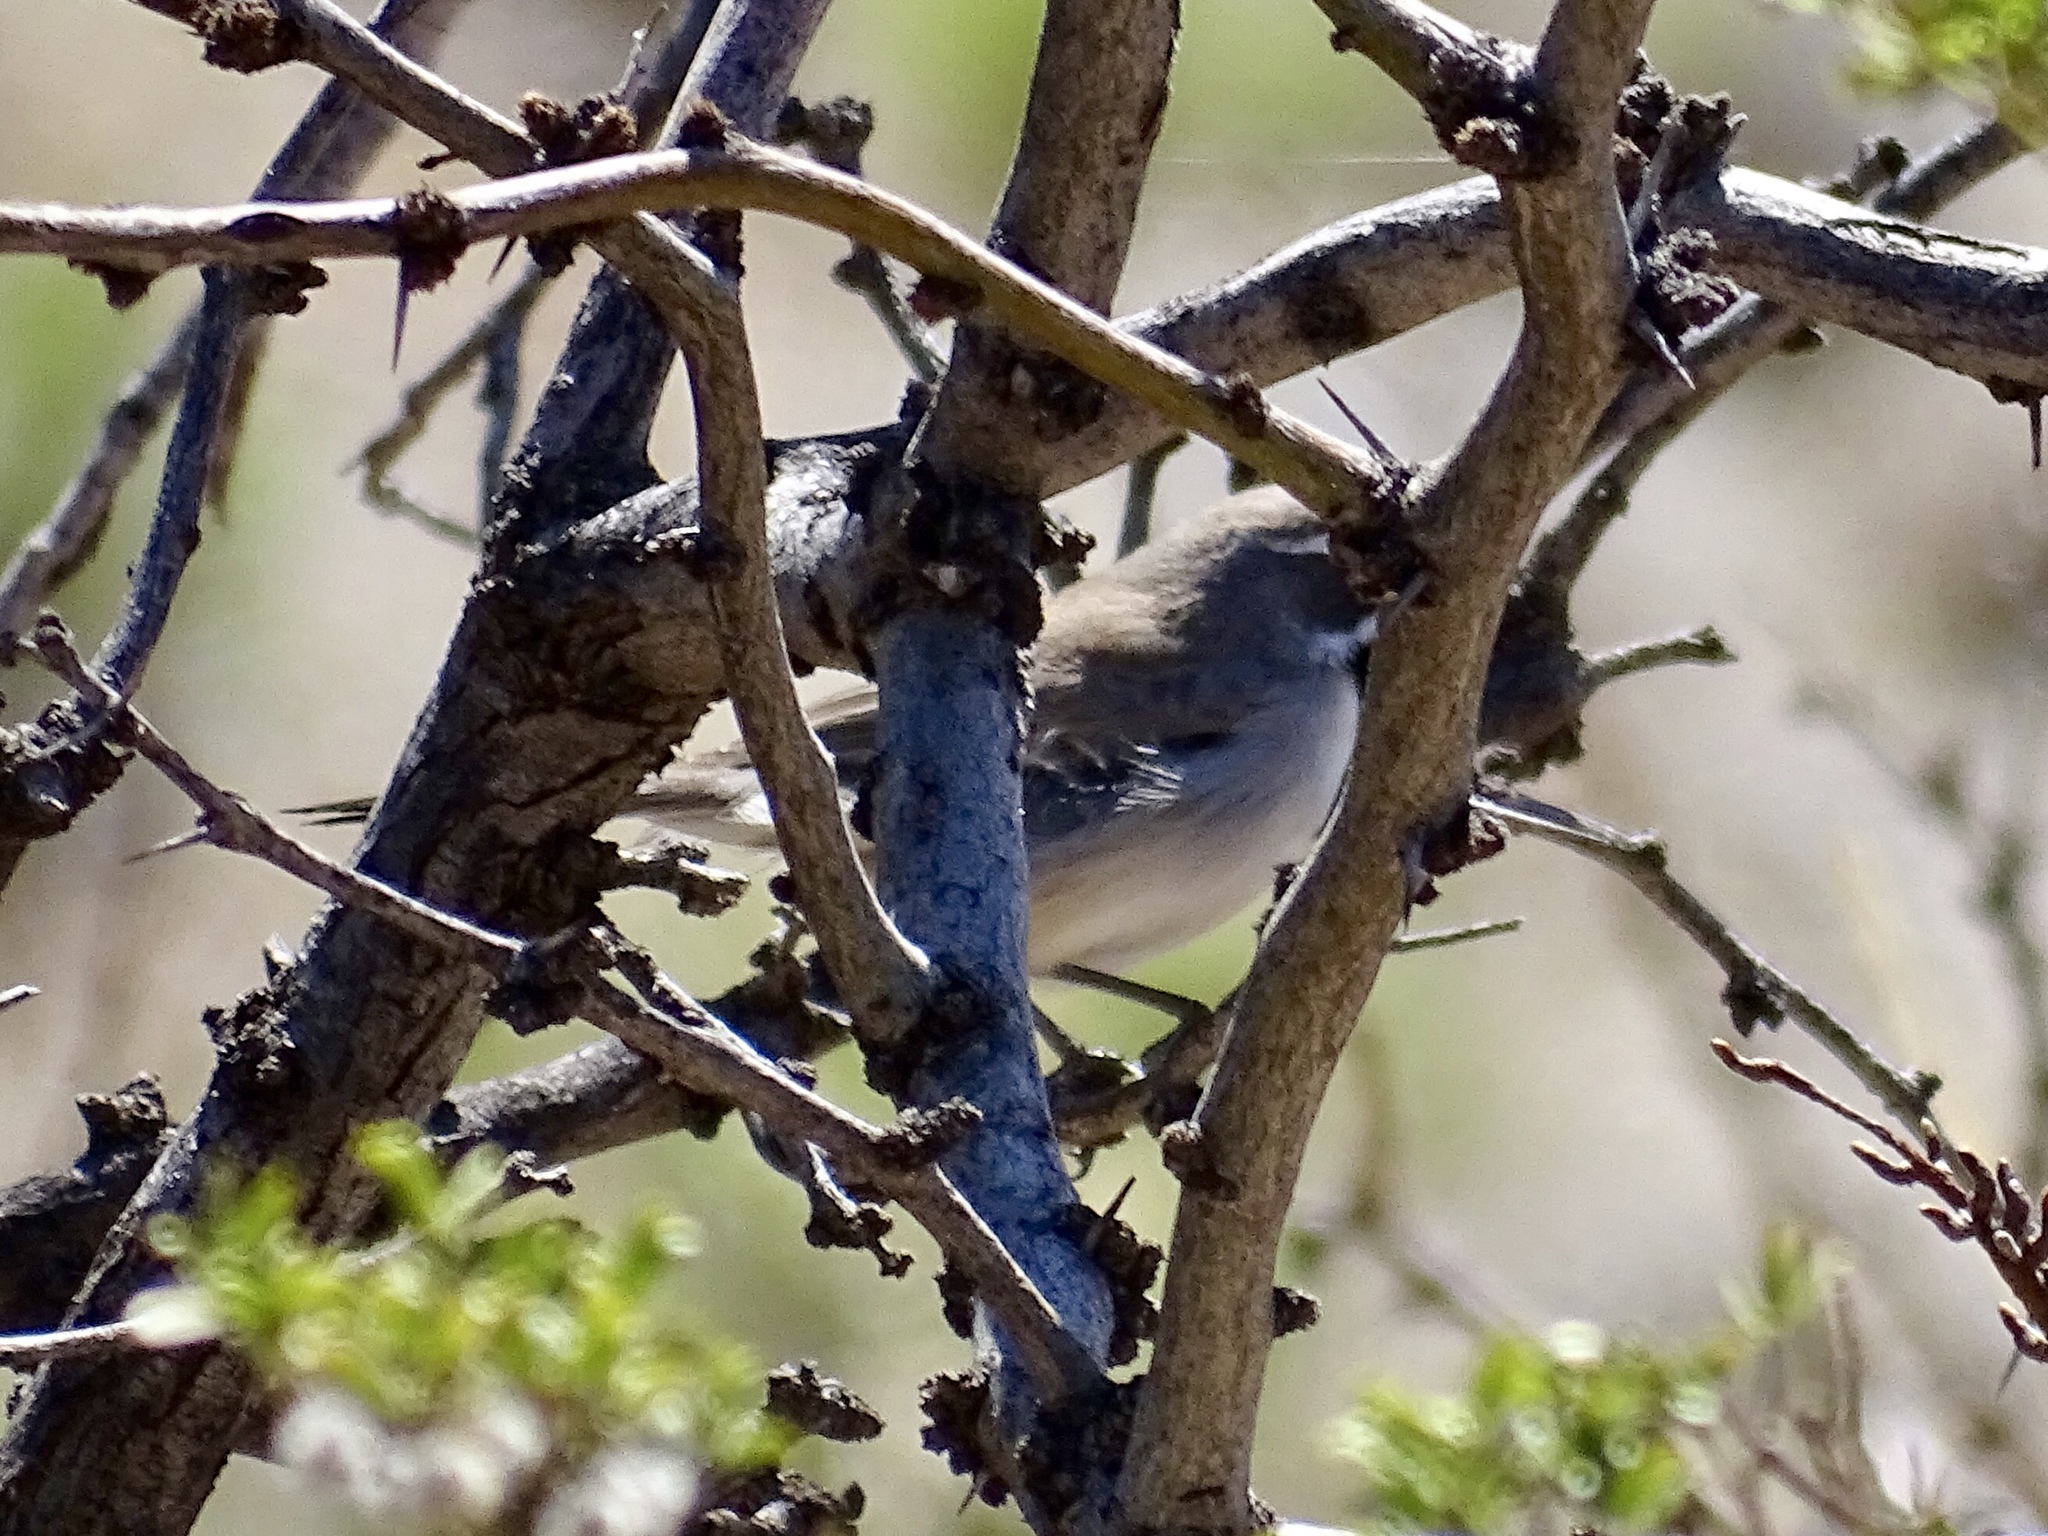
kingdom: Animalia
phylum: Chordata
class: Aves
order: Passeriformes
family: Passerellidae
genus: Amphispiza
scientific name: Amphispiza bilineata
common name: Black-throated sparrow
